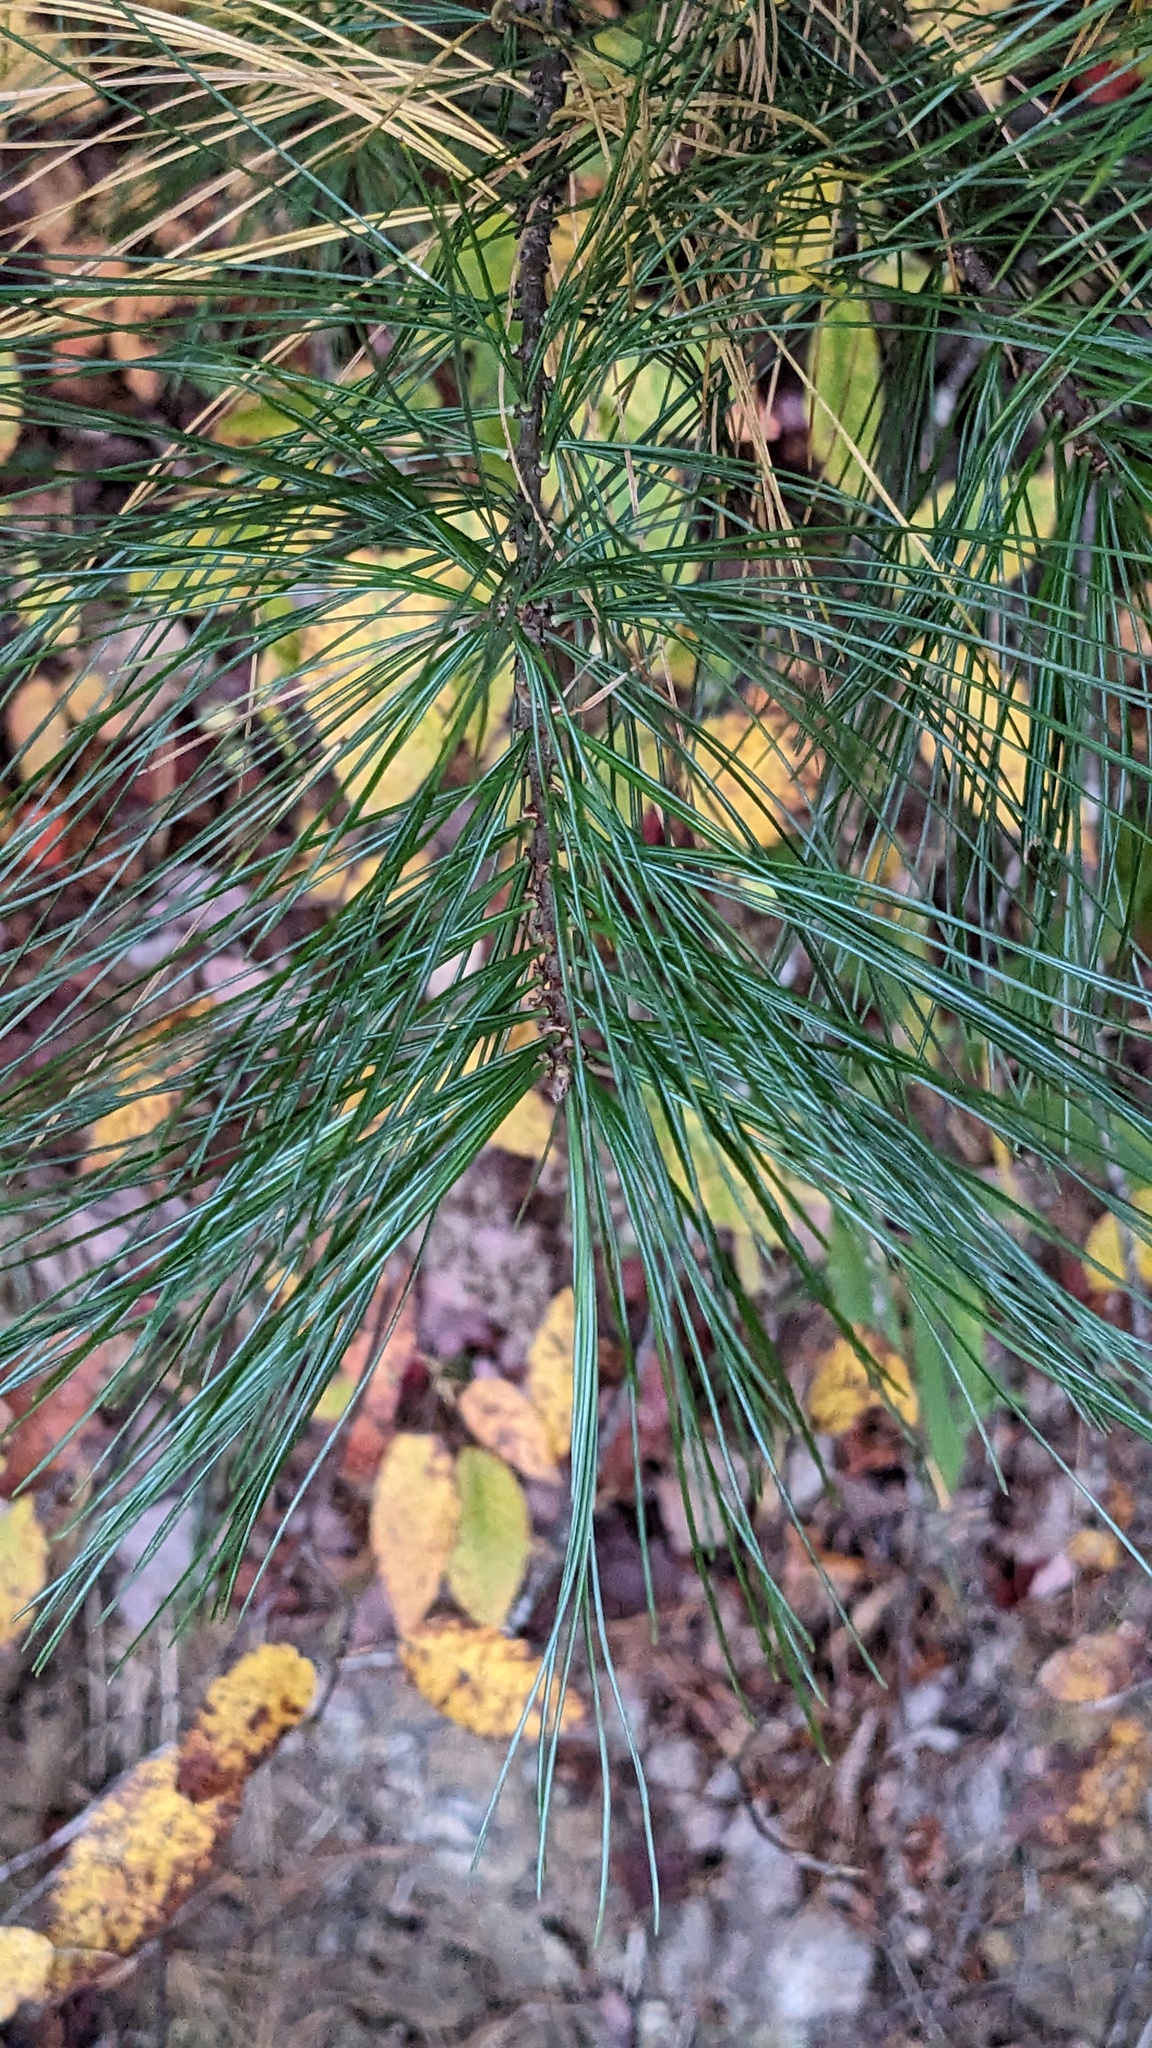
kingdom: Plantae
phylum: Tracheophyta
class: Pinopsida
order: Pinales
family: Pinaceae
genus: Pinus
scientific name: Pinus strobus
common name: Weymouth pine
